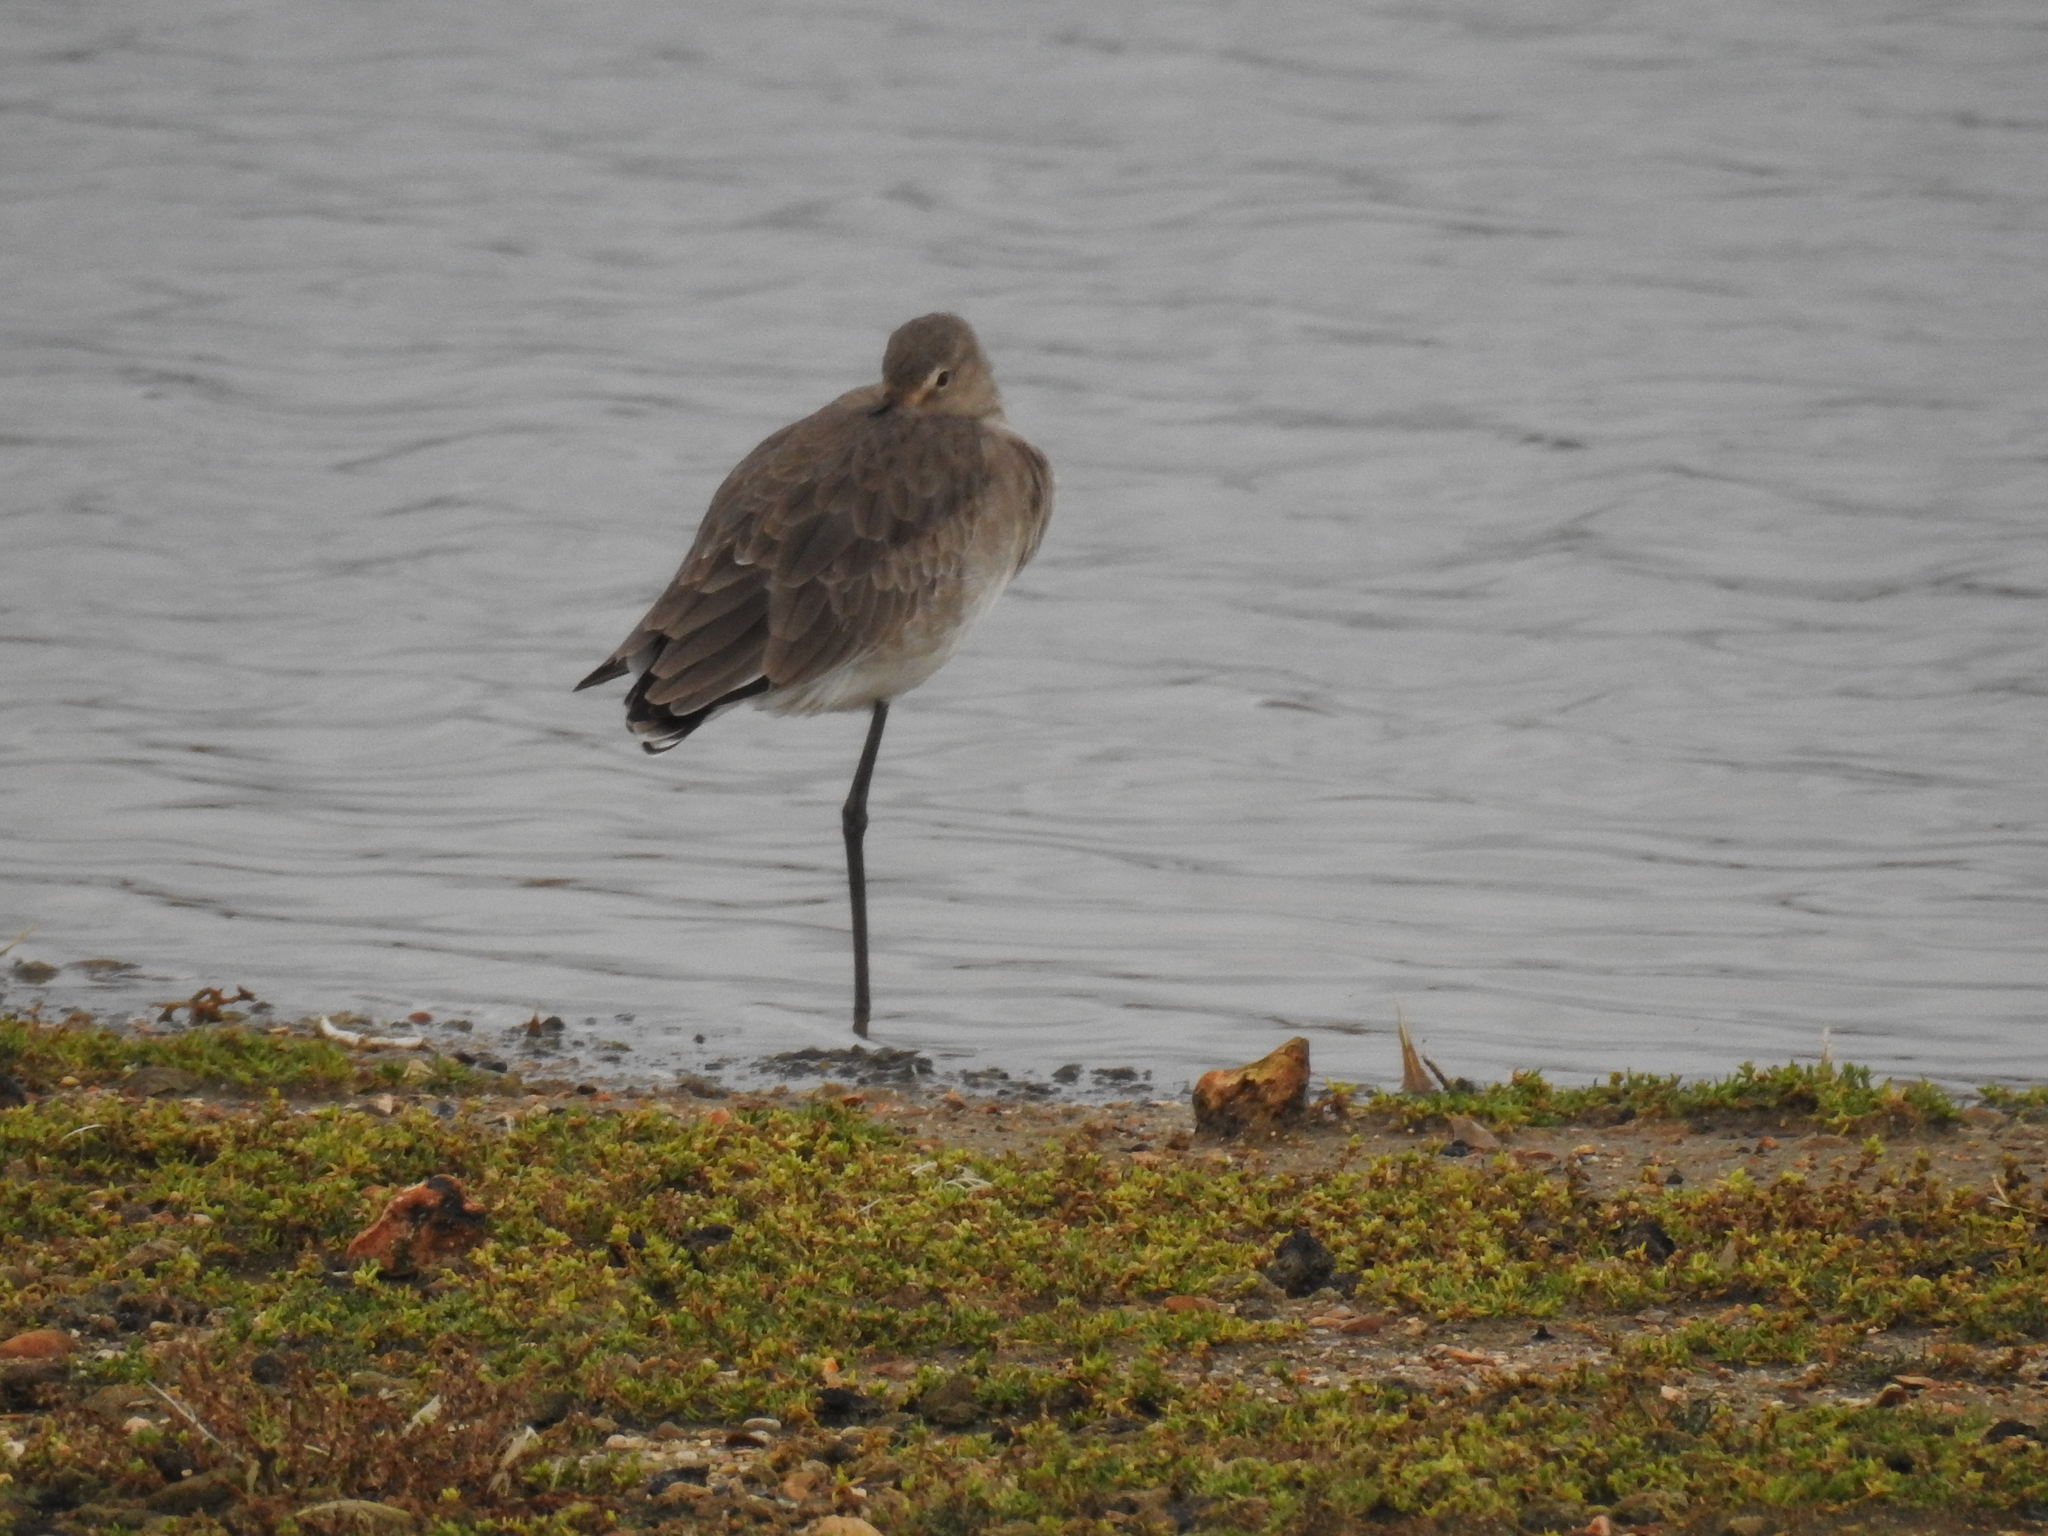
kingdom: Animalia
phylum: Chordata
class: Aves
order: Charadriiformes
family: Scolopacidae
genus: Limosa
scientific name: Limosa limosa
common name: Black-tailed godwit
